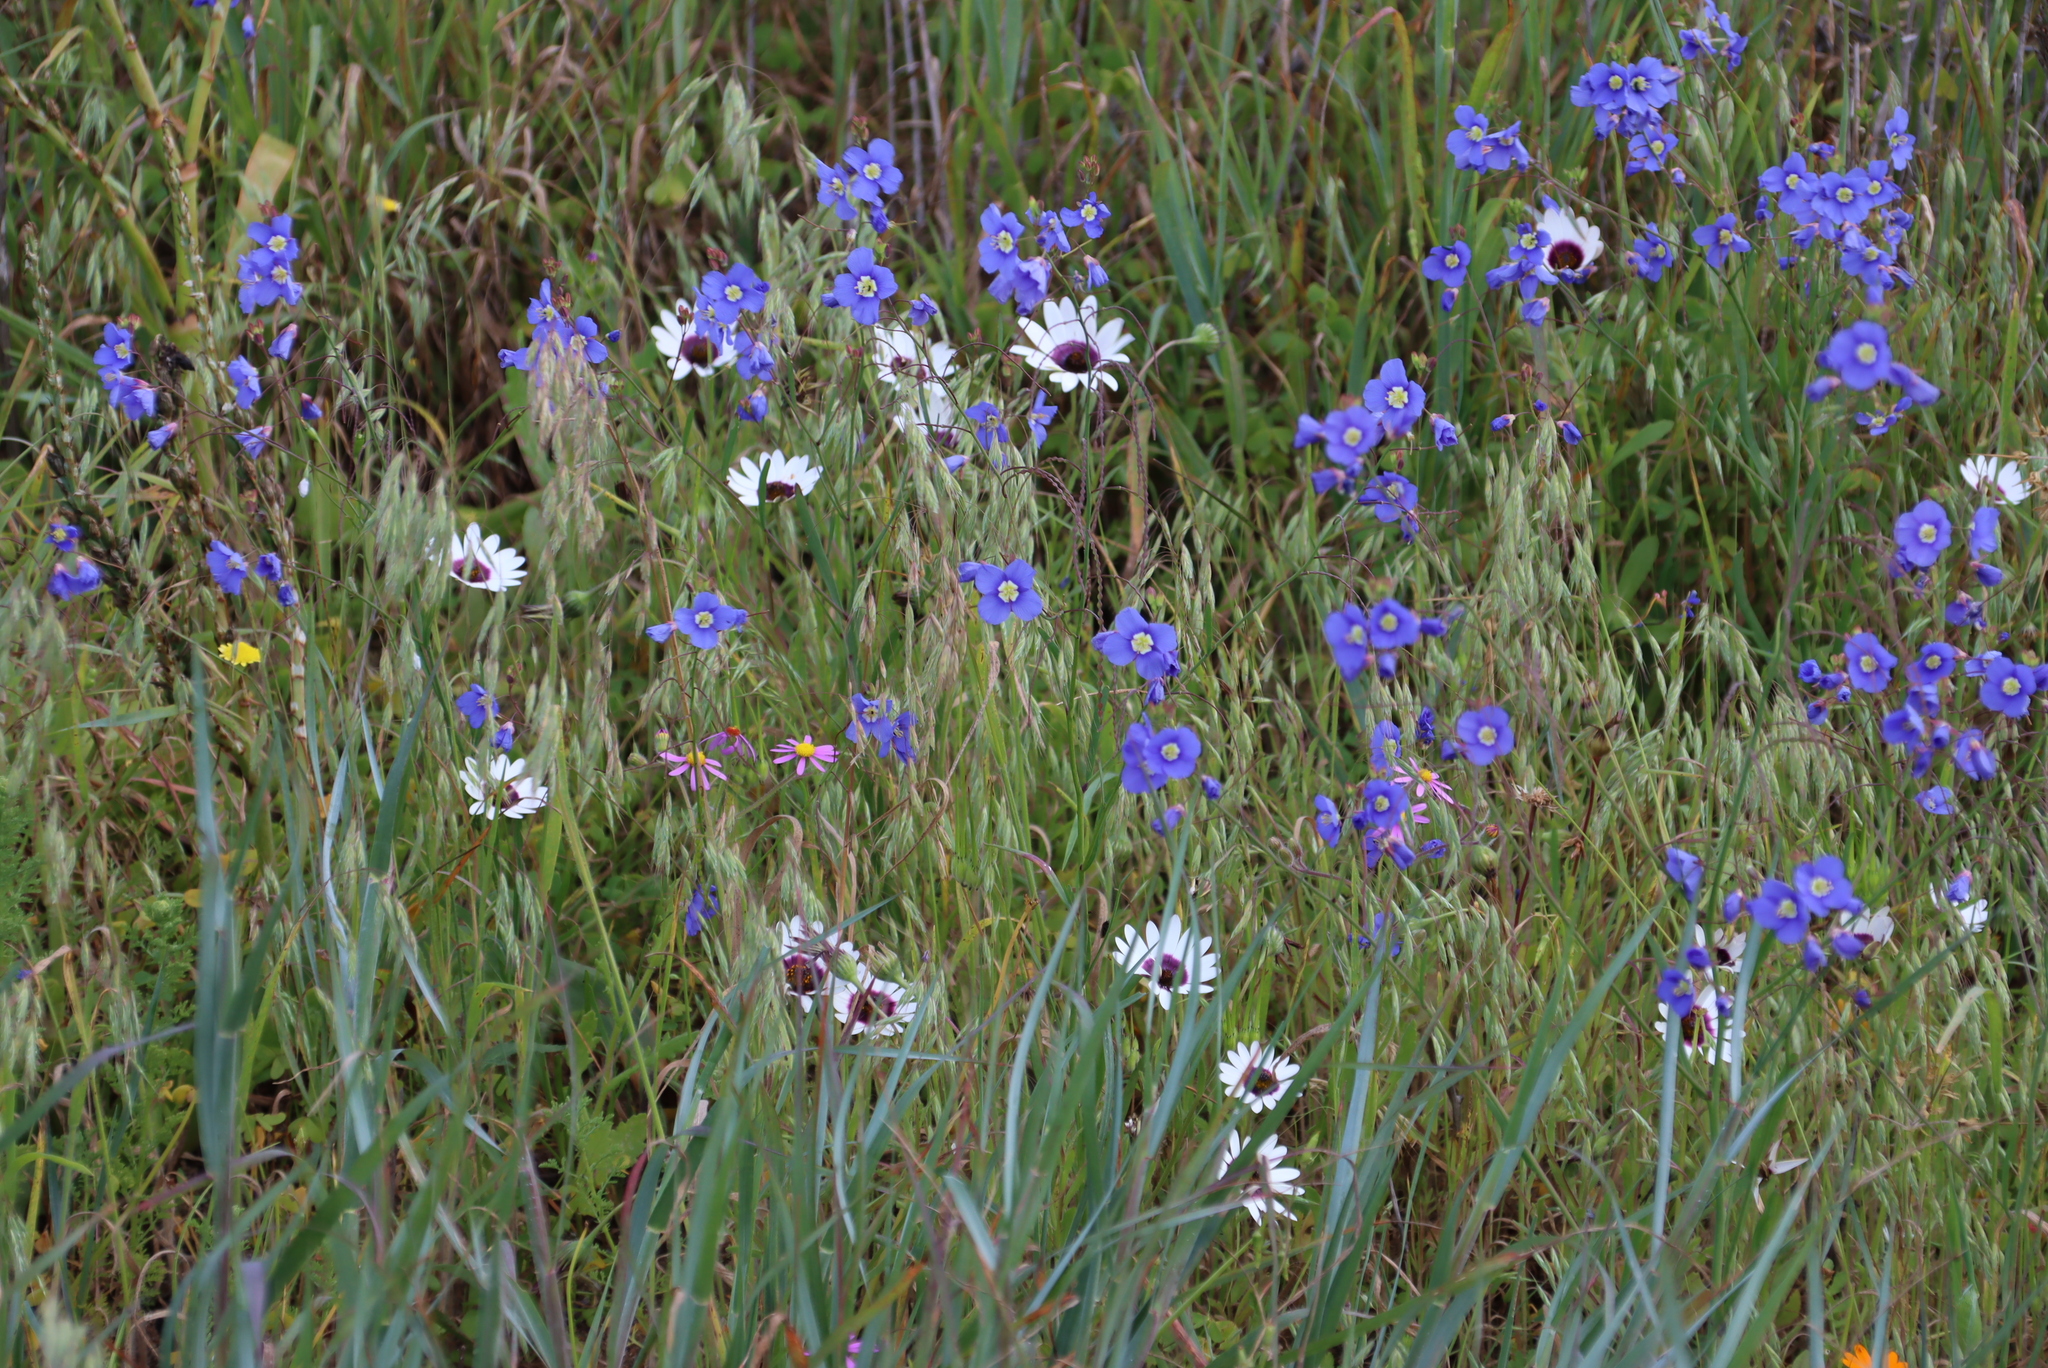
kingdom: Plantae
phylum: Tracheophyta
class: Magnoliopsida
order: Brassicales
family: Brassicaceae
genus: Heliophila
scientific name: Heliophila coronopifolia
